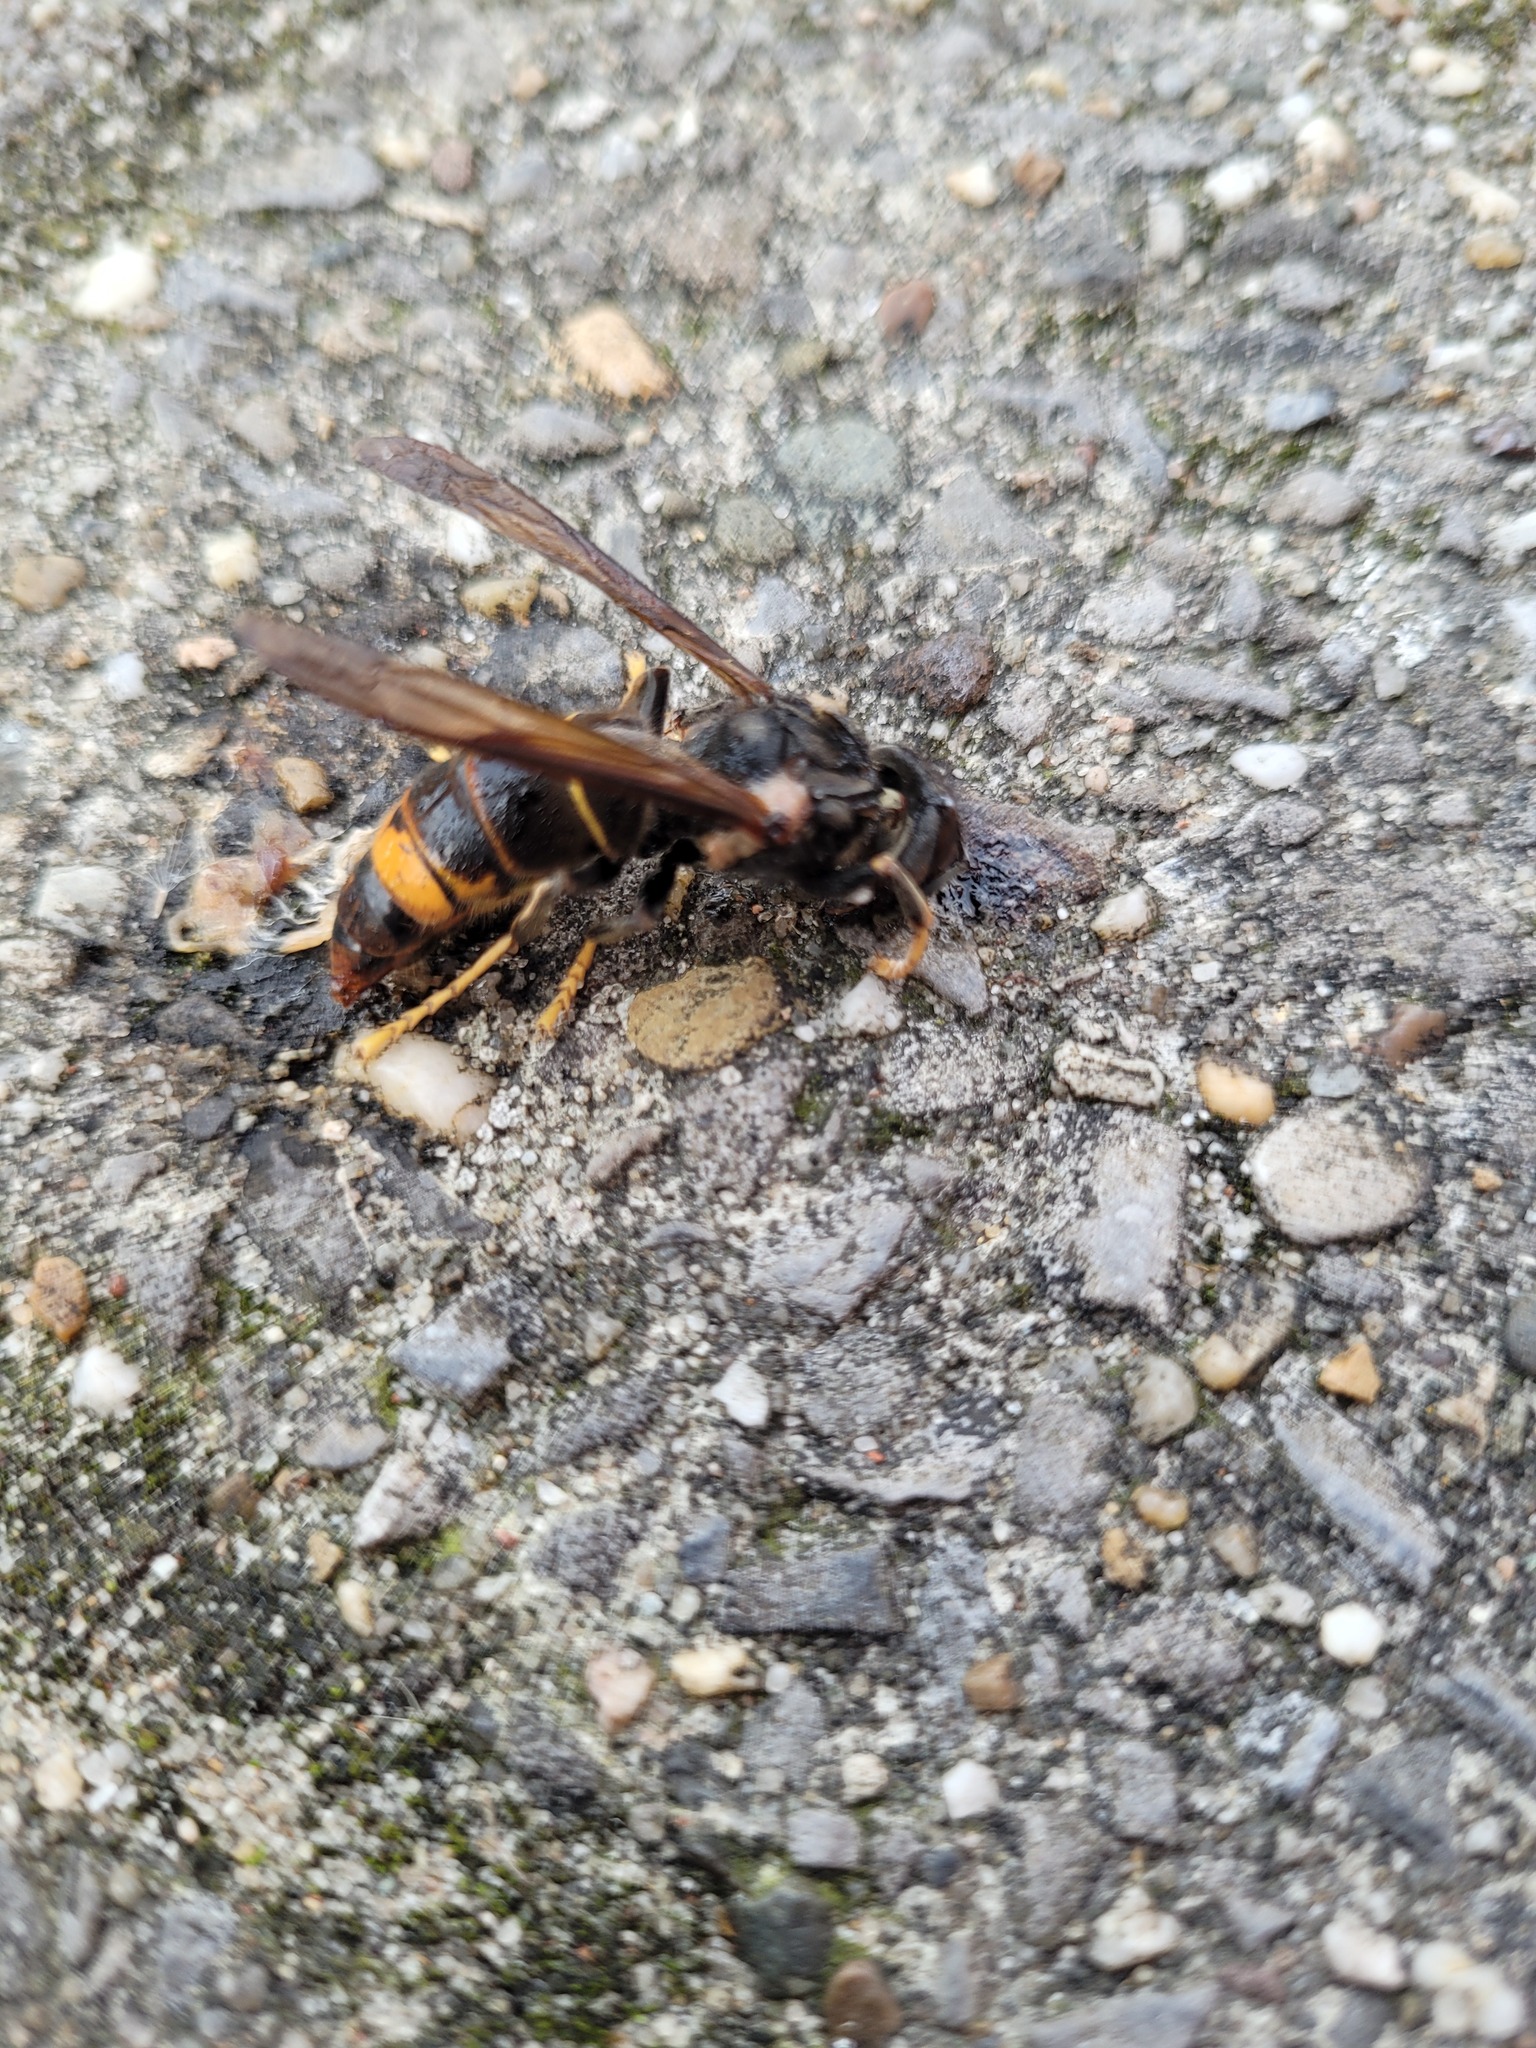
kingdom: Animalia
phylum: Arthropoda
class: Insecta
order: Hymenoptera
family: Vespidae
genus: Vespa
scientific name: Vespa velutina
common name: Asian hornet
